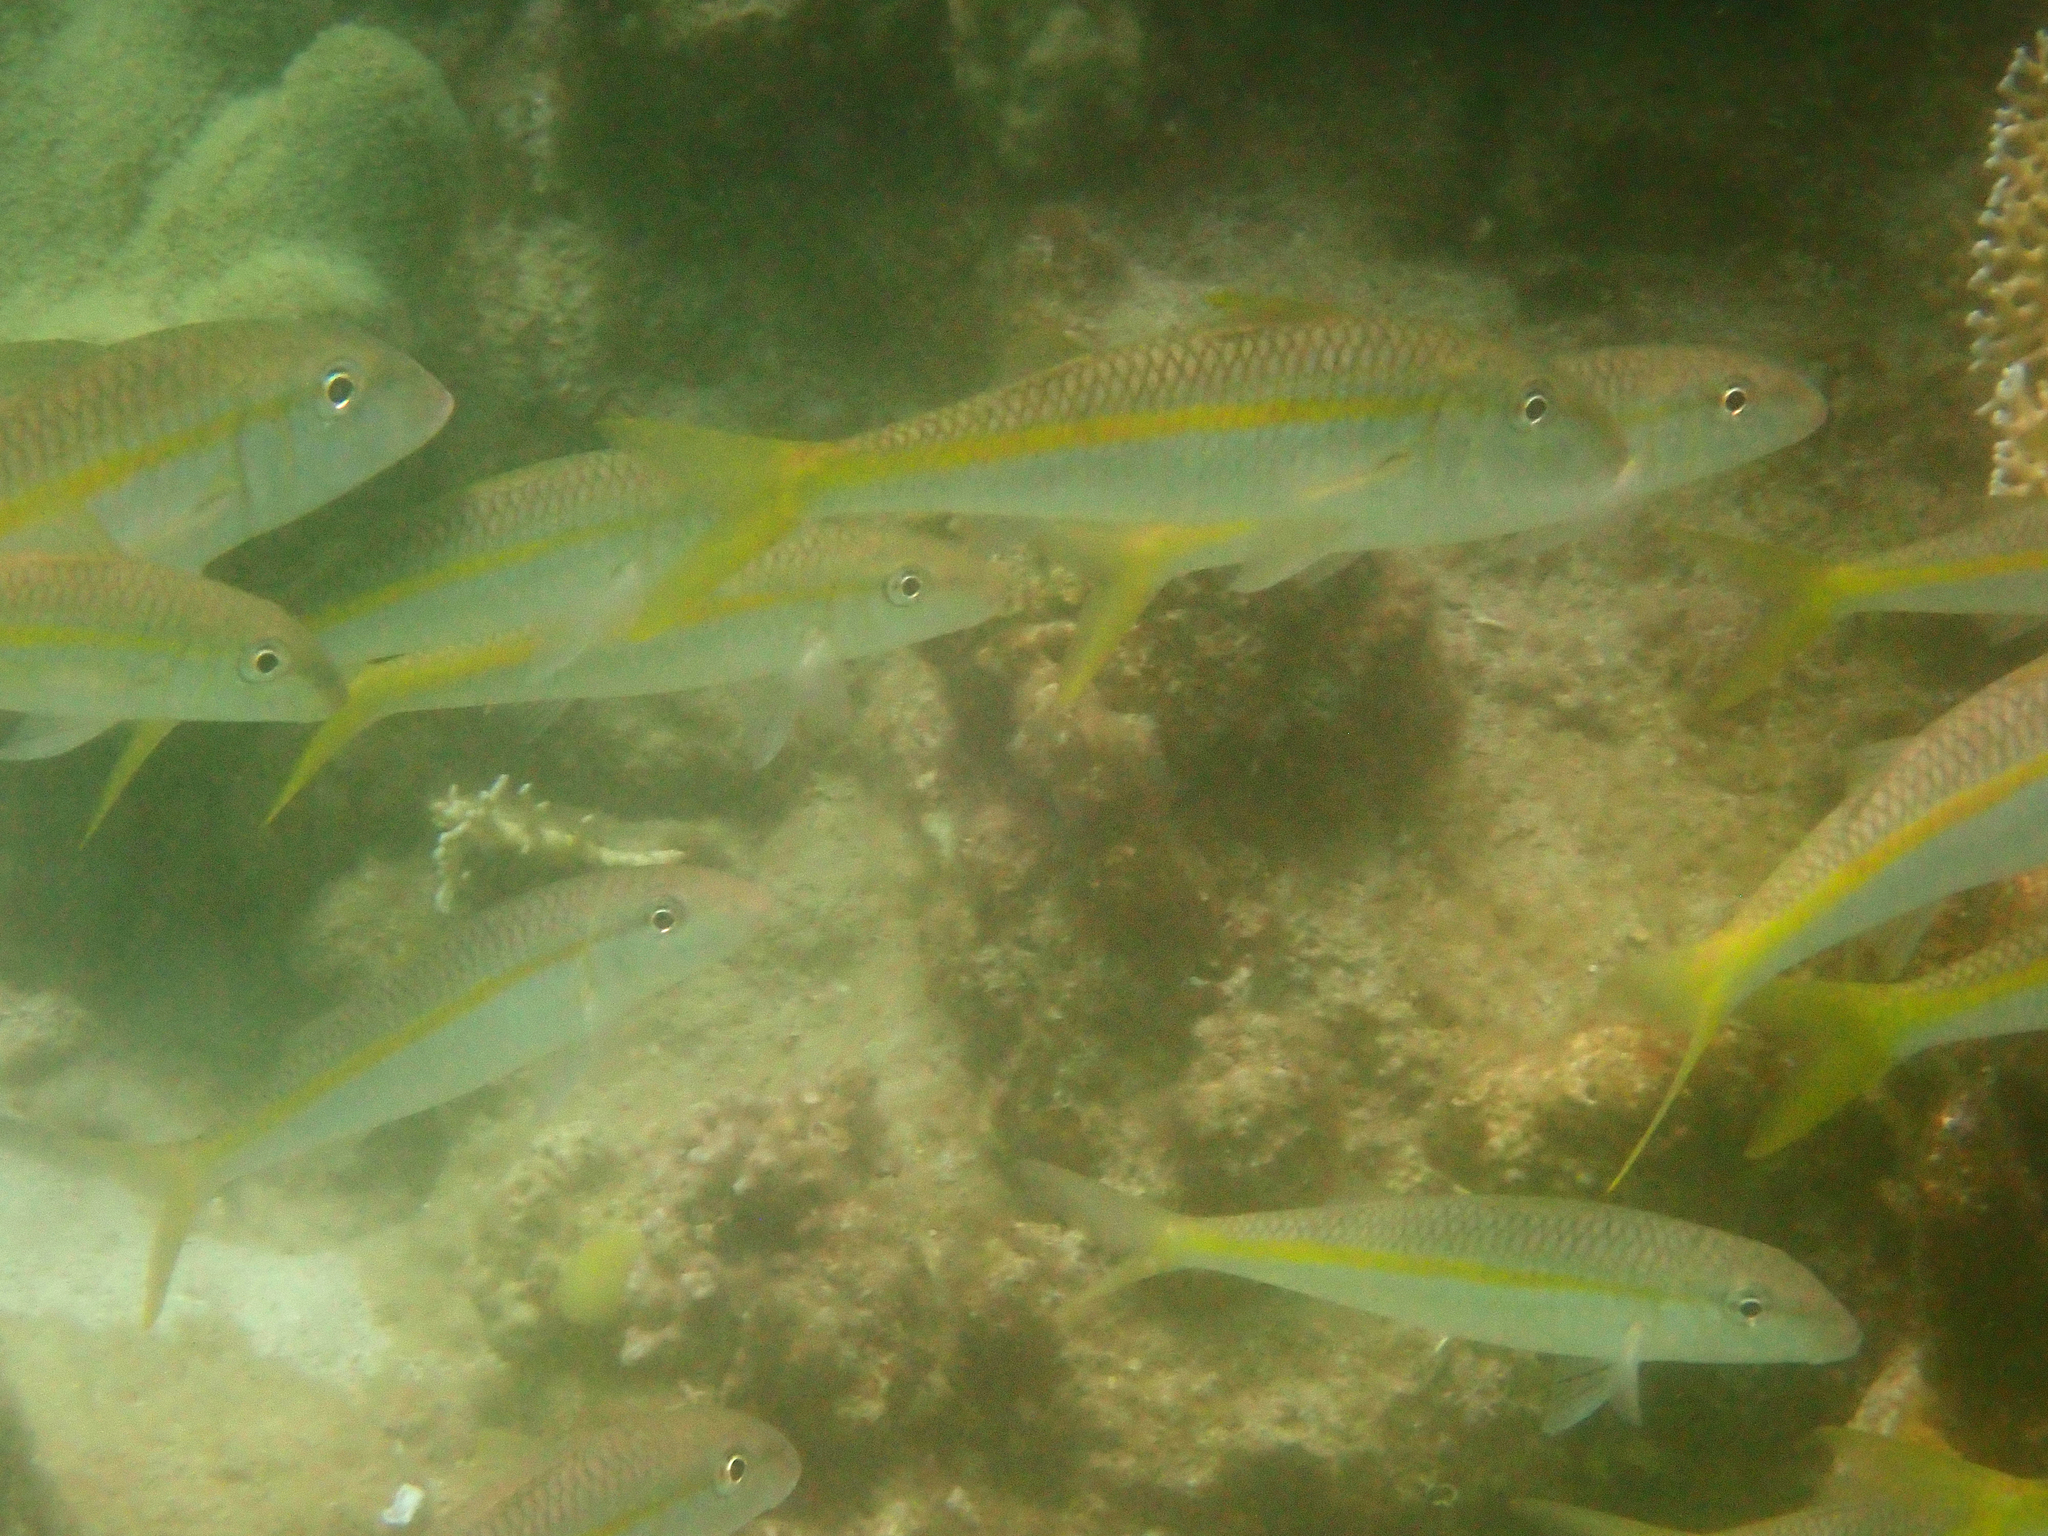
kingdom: Animalia
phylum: Chordata
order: Perciformes
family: Mullidae
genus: Mulloidichthys
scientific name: Mulloidichthys flavolineatus
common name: Yellowstripe goatfish
